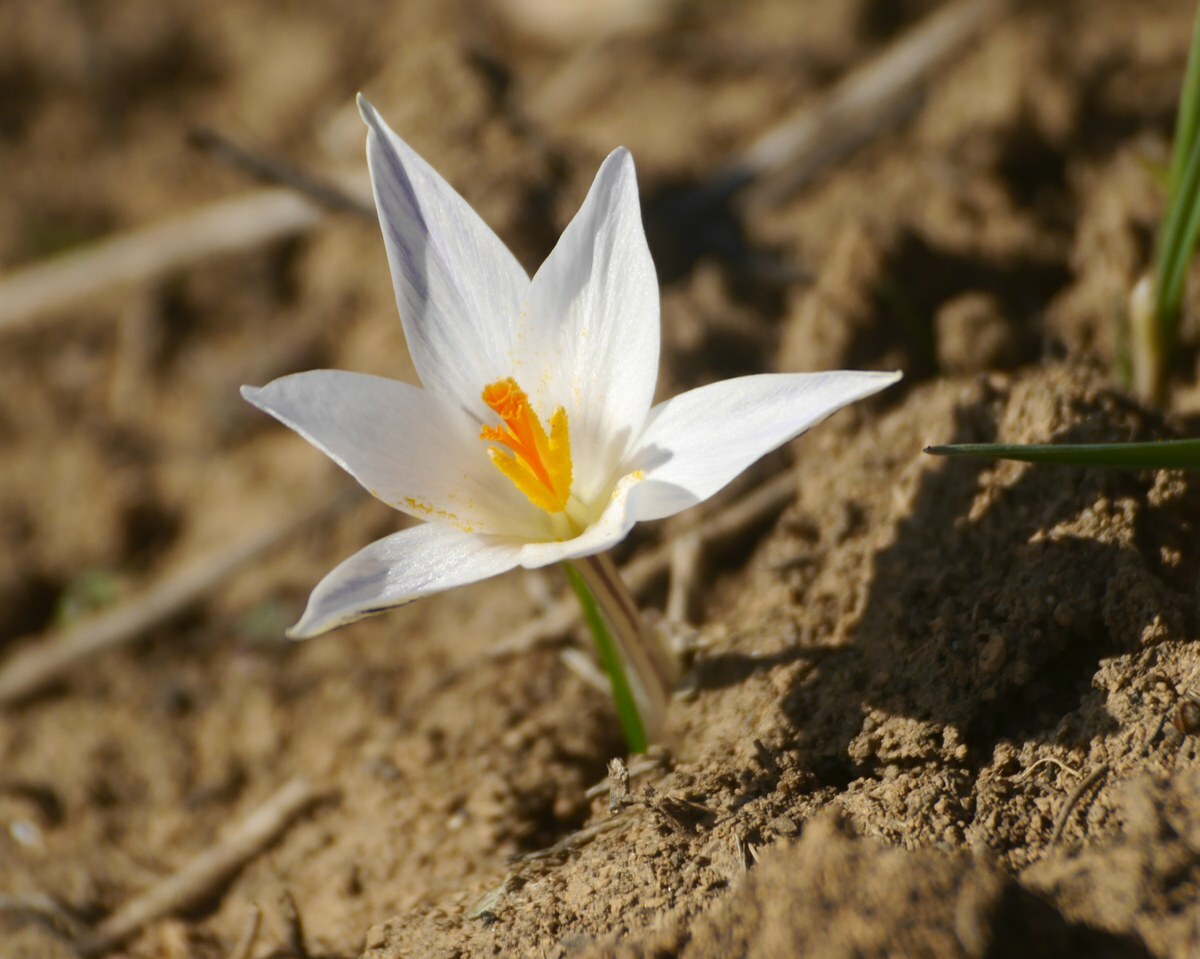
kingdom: Plantae
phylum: Tracheophyta
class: Liliopsida
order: Asparagales
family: Iridaceae
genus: Crocus
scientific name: Crocus reticulatus
